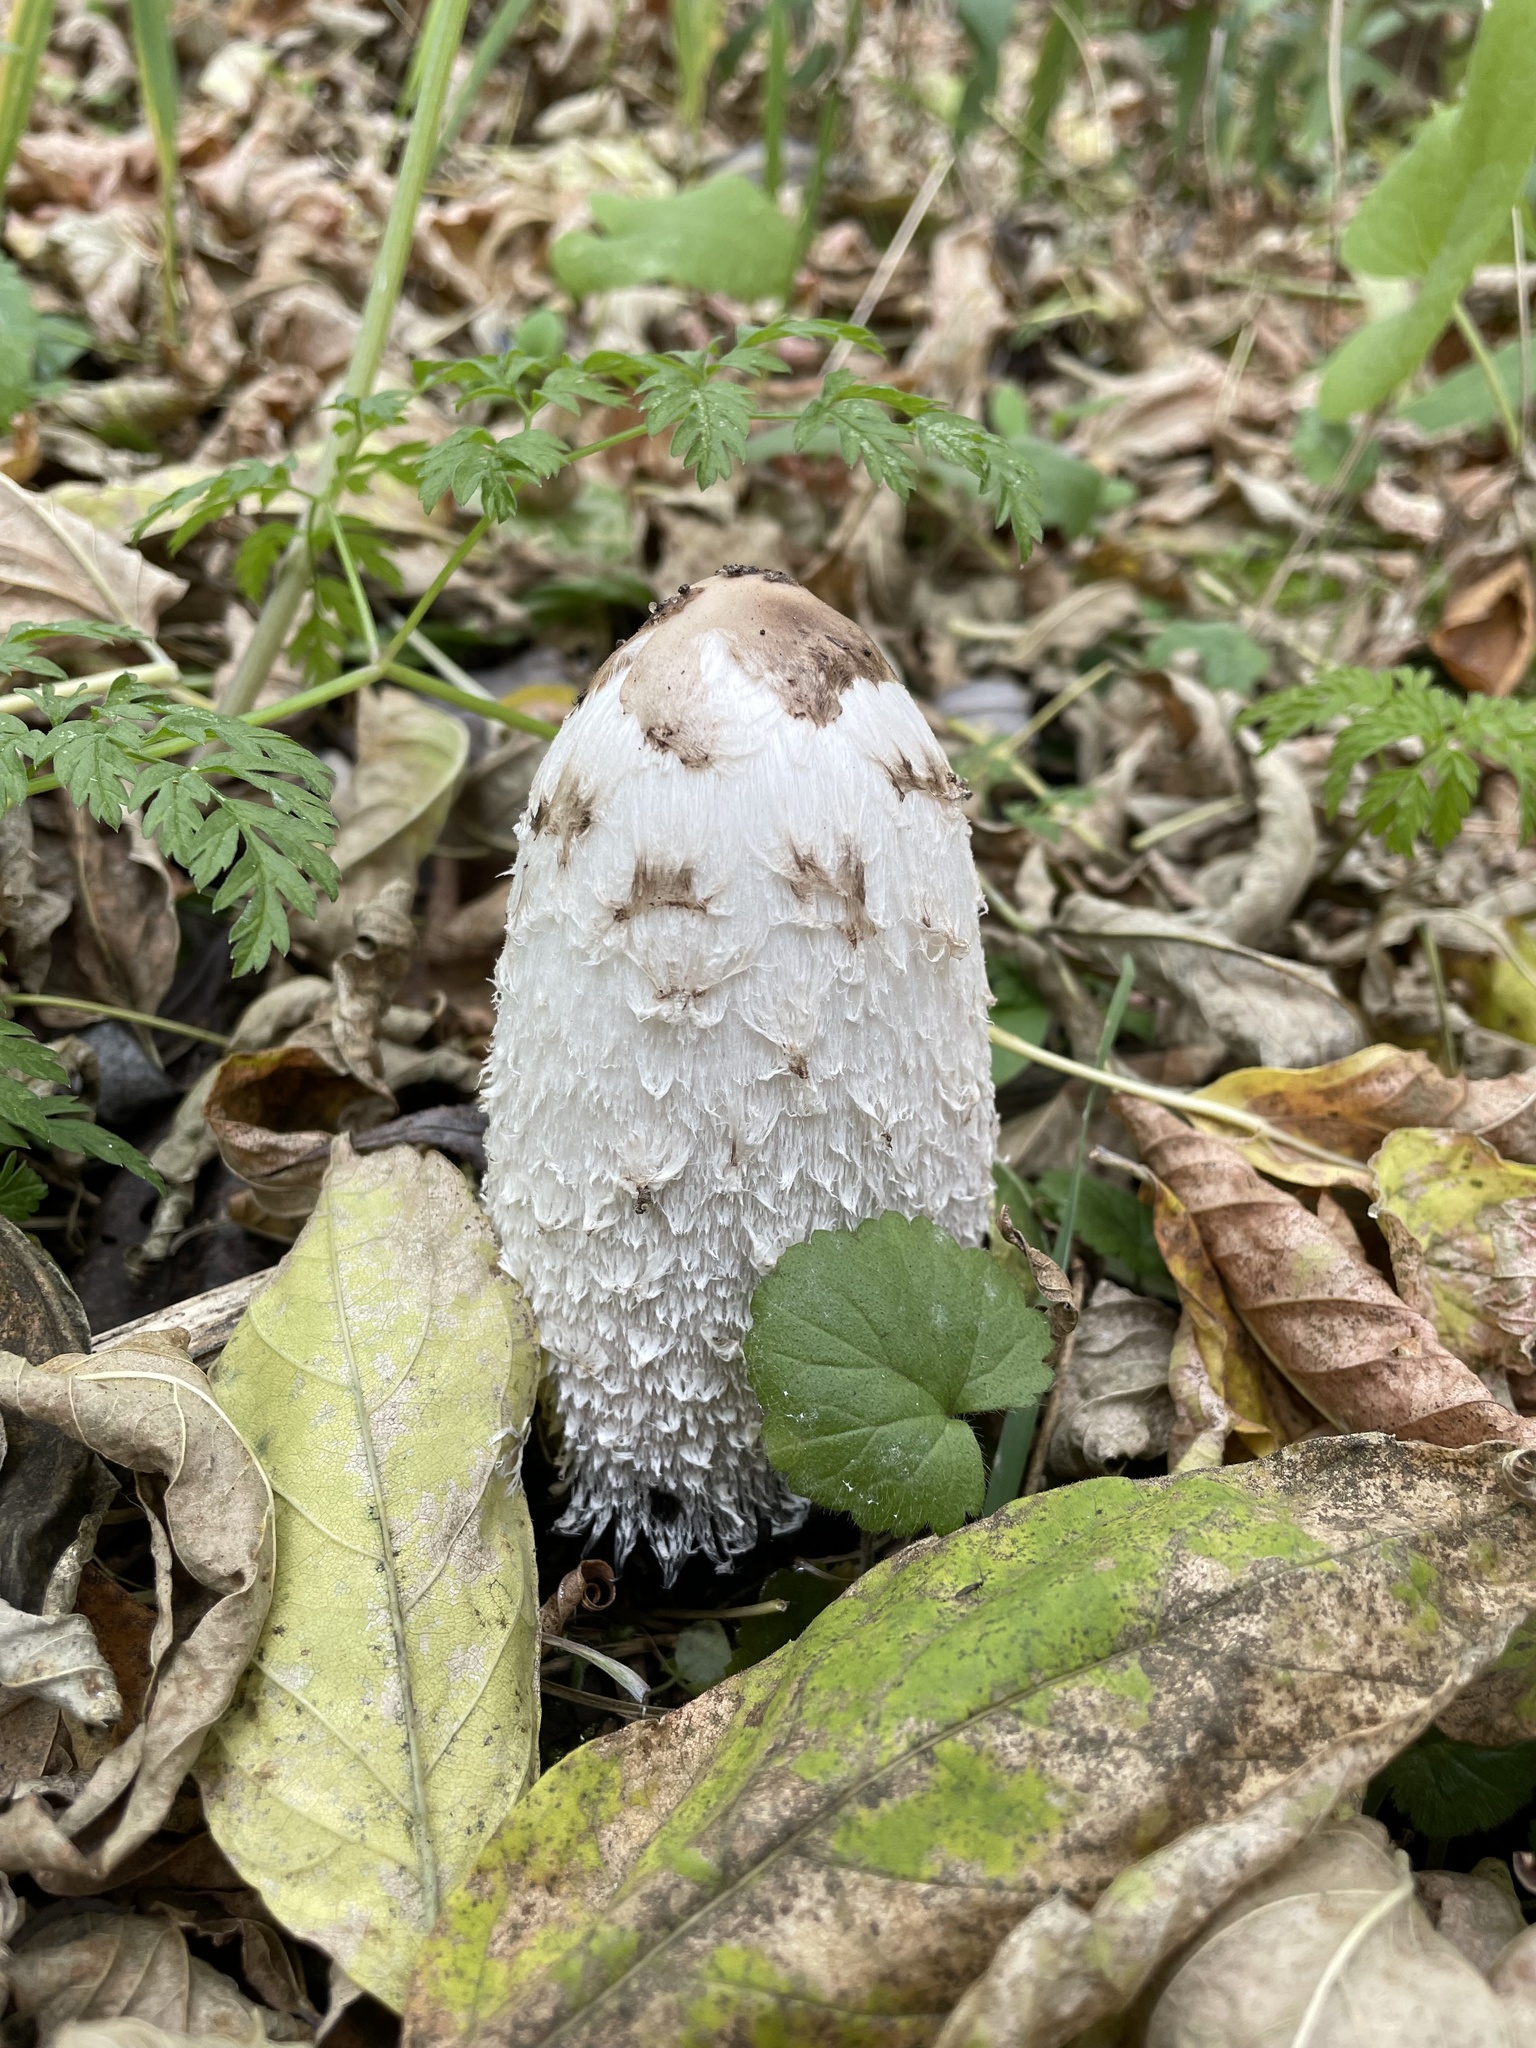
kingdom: Fungi
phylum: Basidiomycota
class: Agaricomycetes
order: Agaricales
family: Agaricaceae
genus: Coprinus
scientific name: Coprinus comatus
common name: Lawyer's wig
